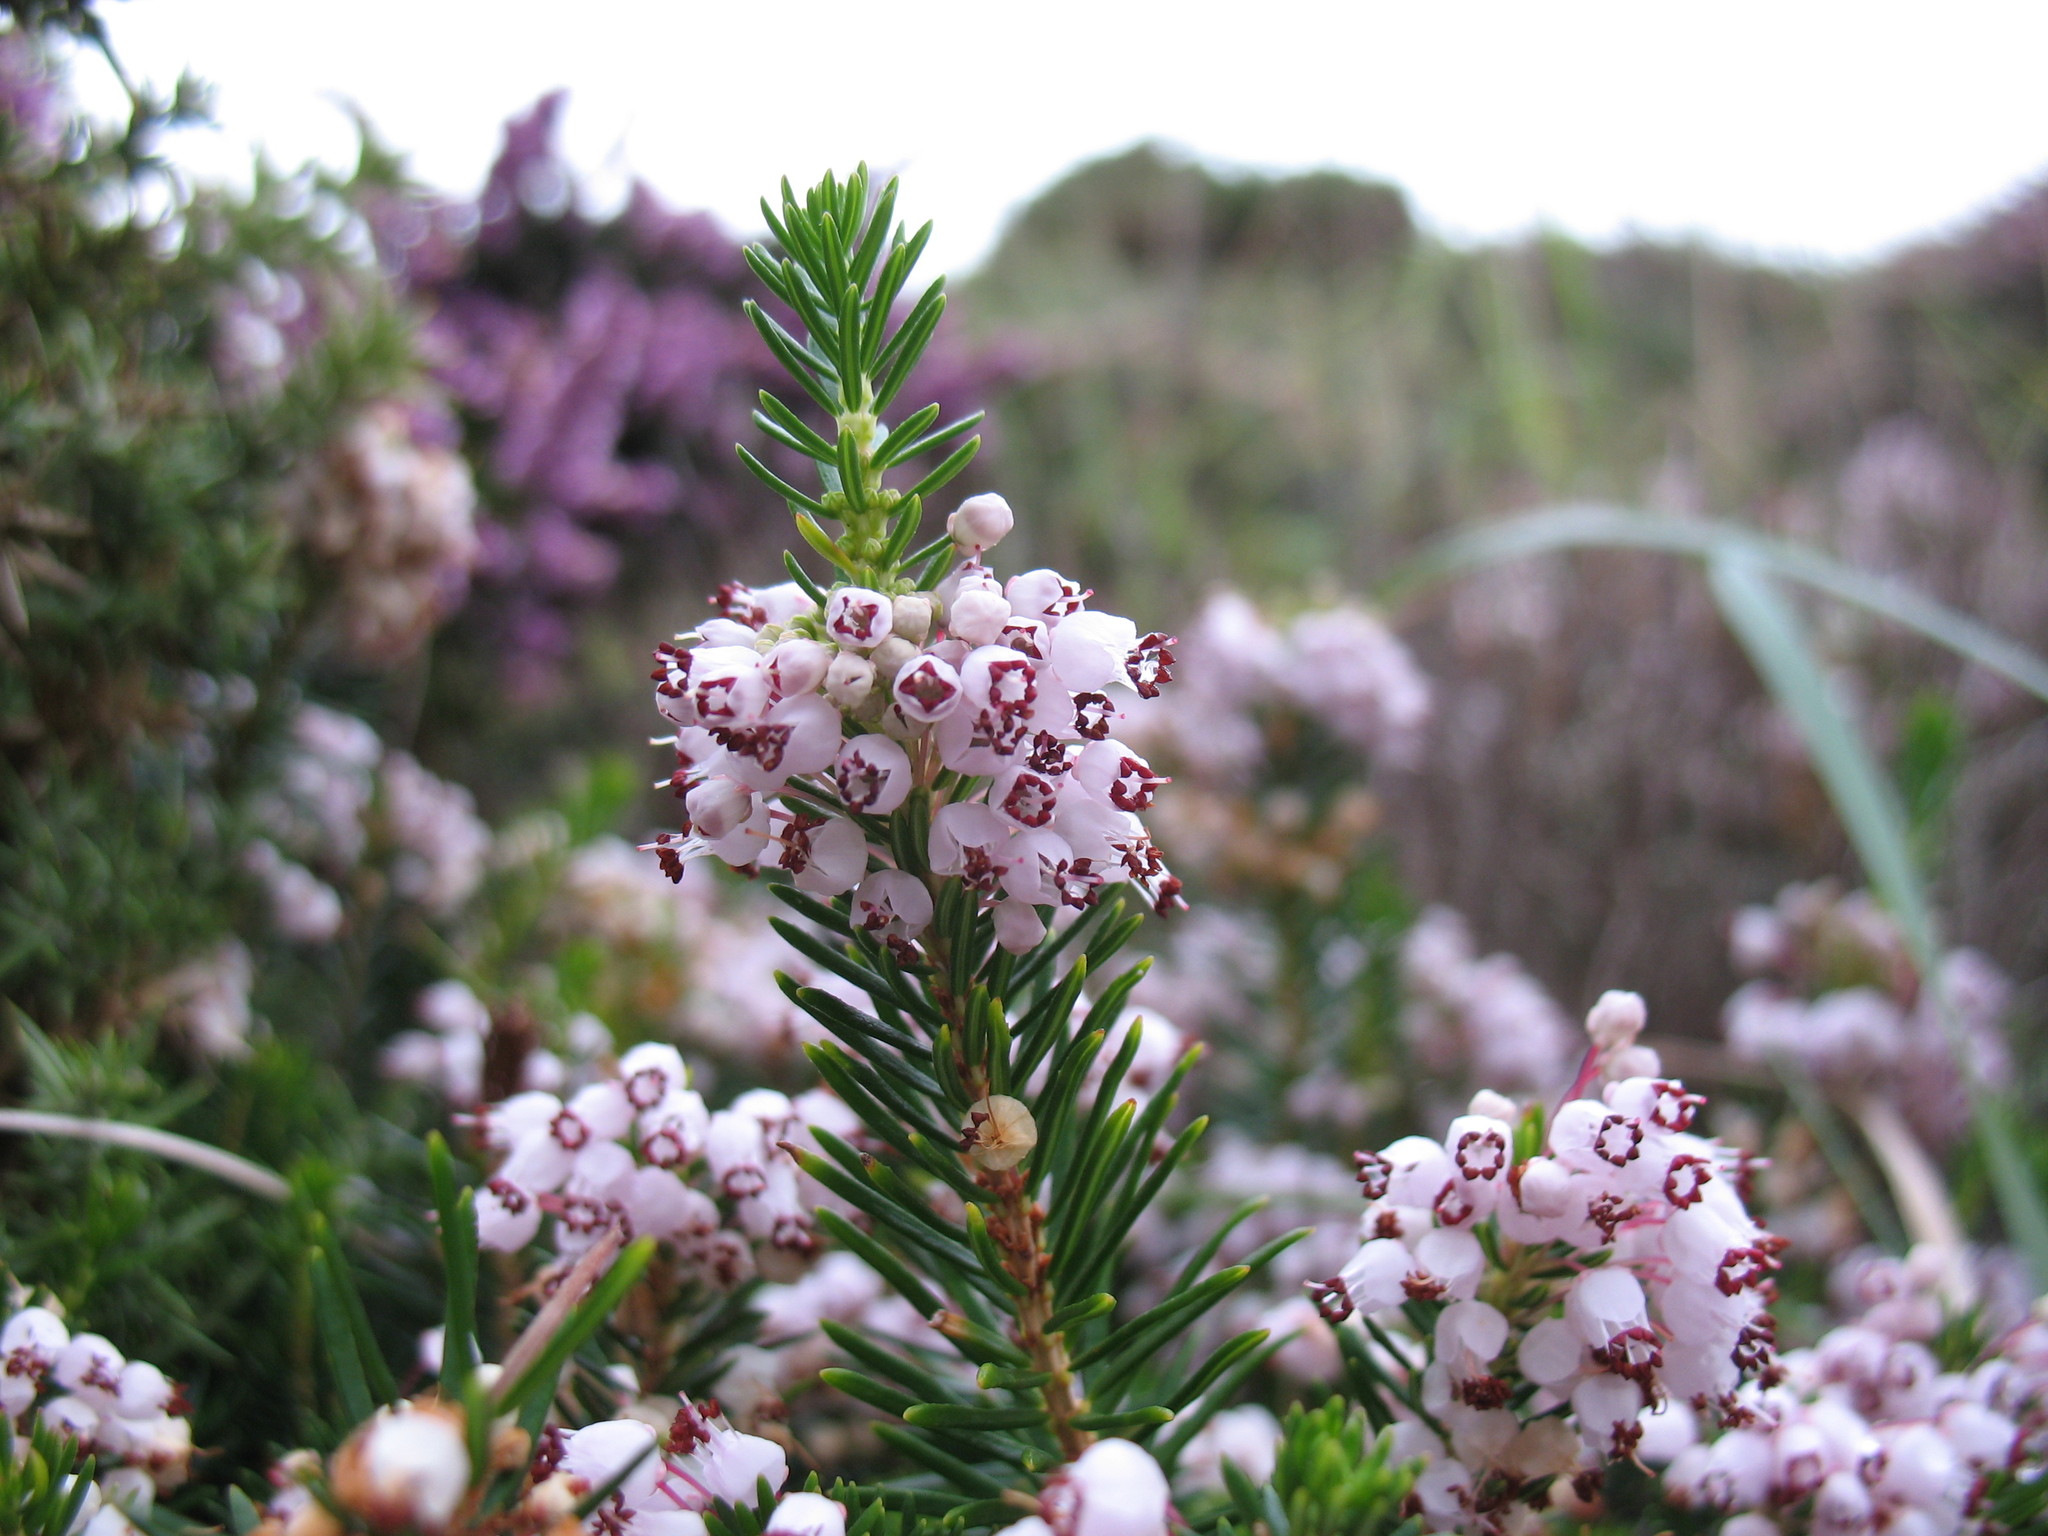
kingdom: Plantae
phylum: Tracheophyta
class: Magnoliopsida
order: Ericales
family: Ericaceae
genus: Erica
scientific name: Erica vagans
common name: Cornish heath
